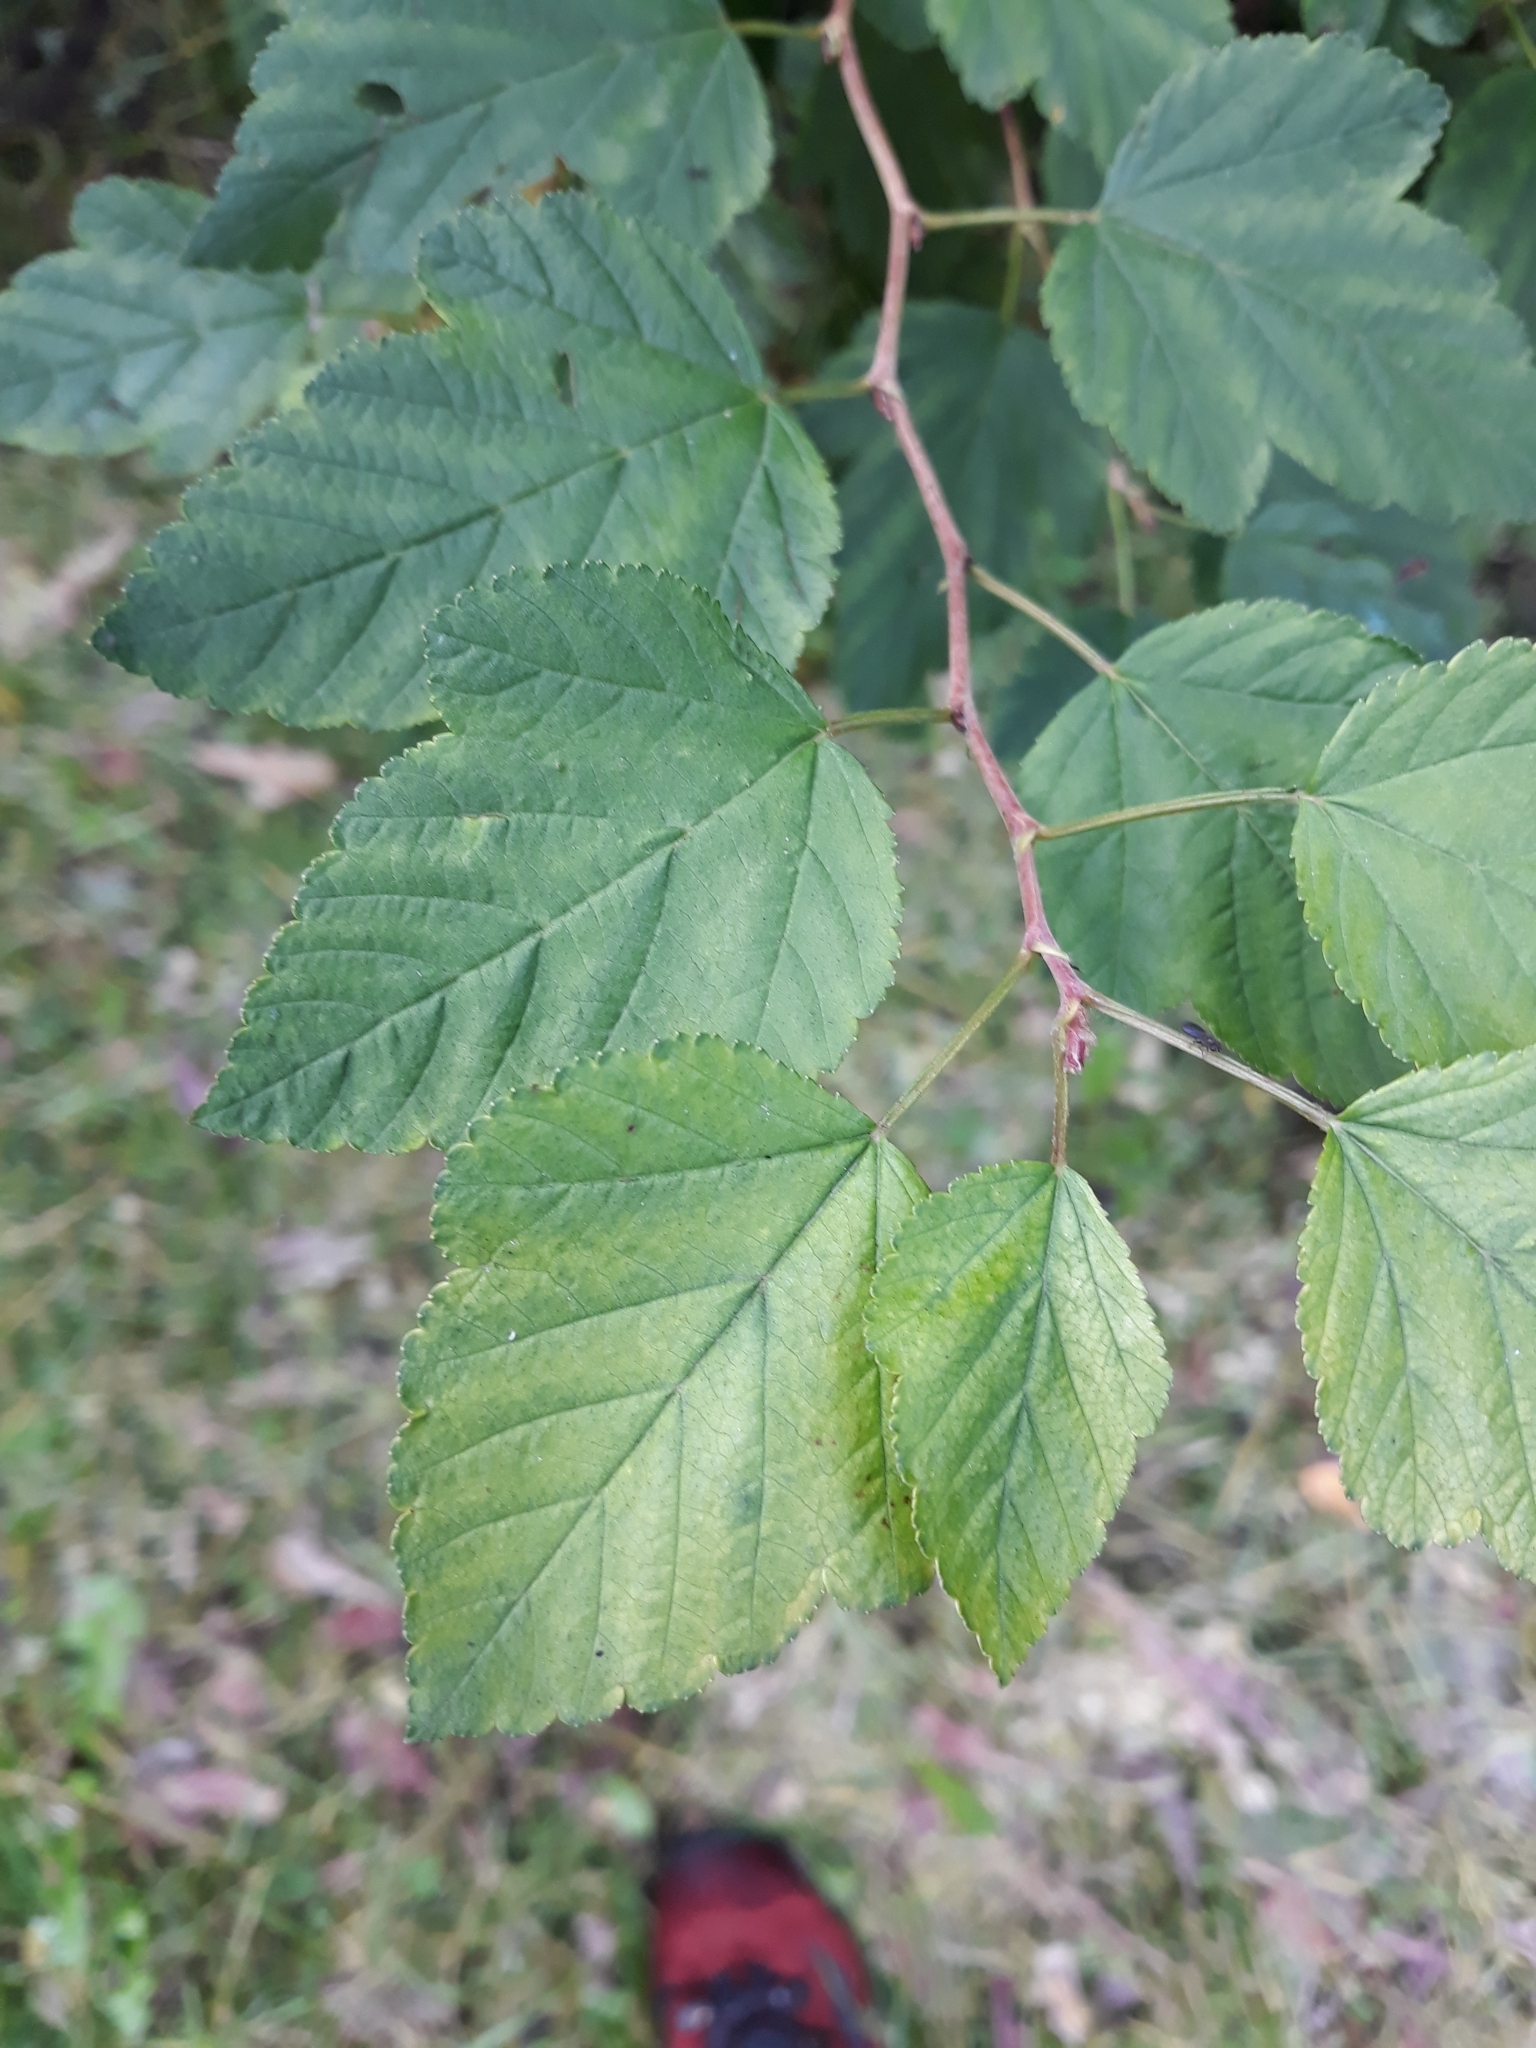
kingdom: Plantae
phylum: Tracheophyta
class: Magnoliopsida
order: Rosales
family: Moraceae
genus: Morus
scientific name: Morus alba
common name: White mulberry
